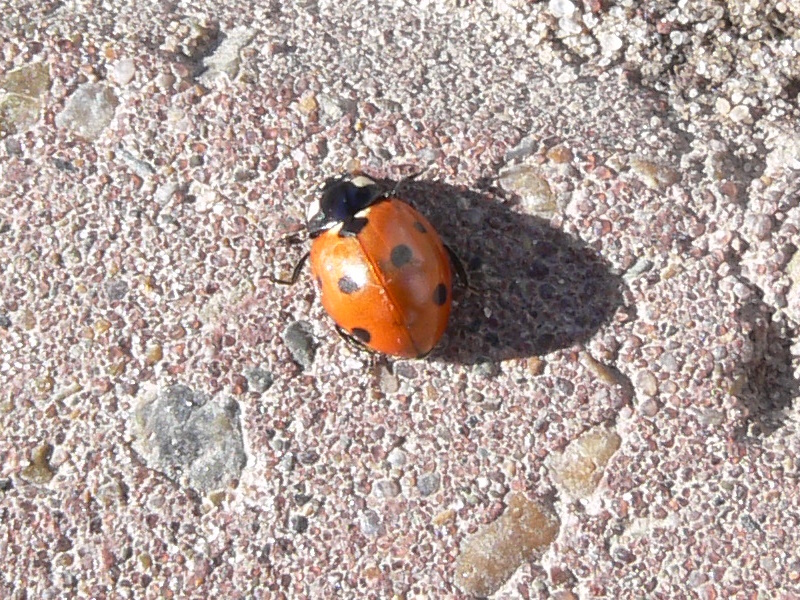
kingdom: Animalia
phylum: Arthropoda
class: Insecta
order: Coleoptera
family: Coccinellidae
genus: Coccinella
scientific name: Coccinella septempunctata
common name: Sevenspotted lady beetle
